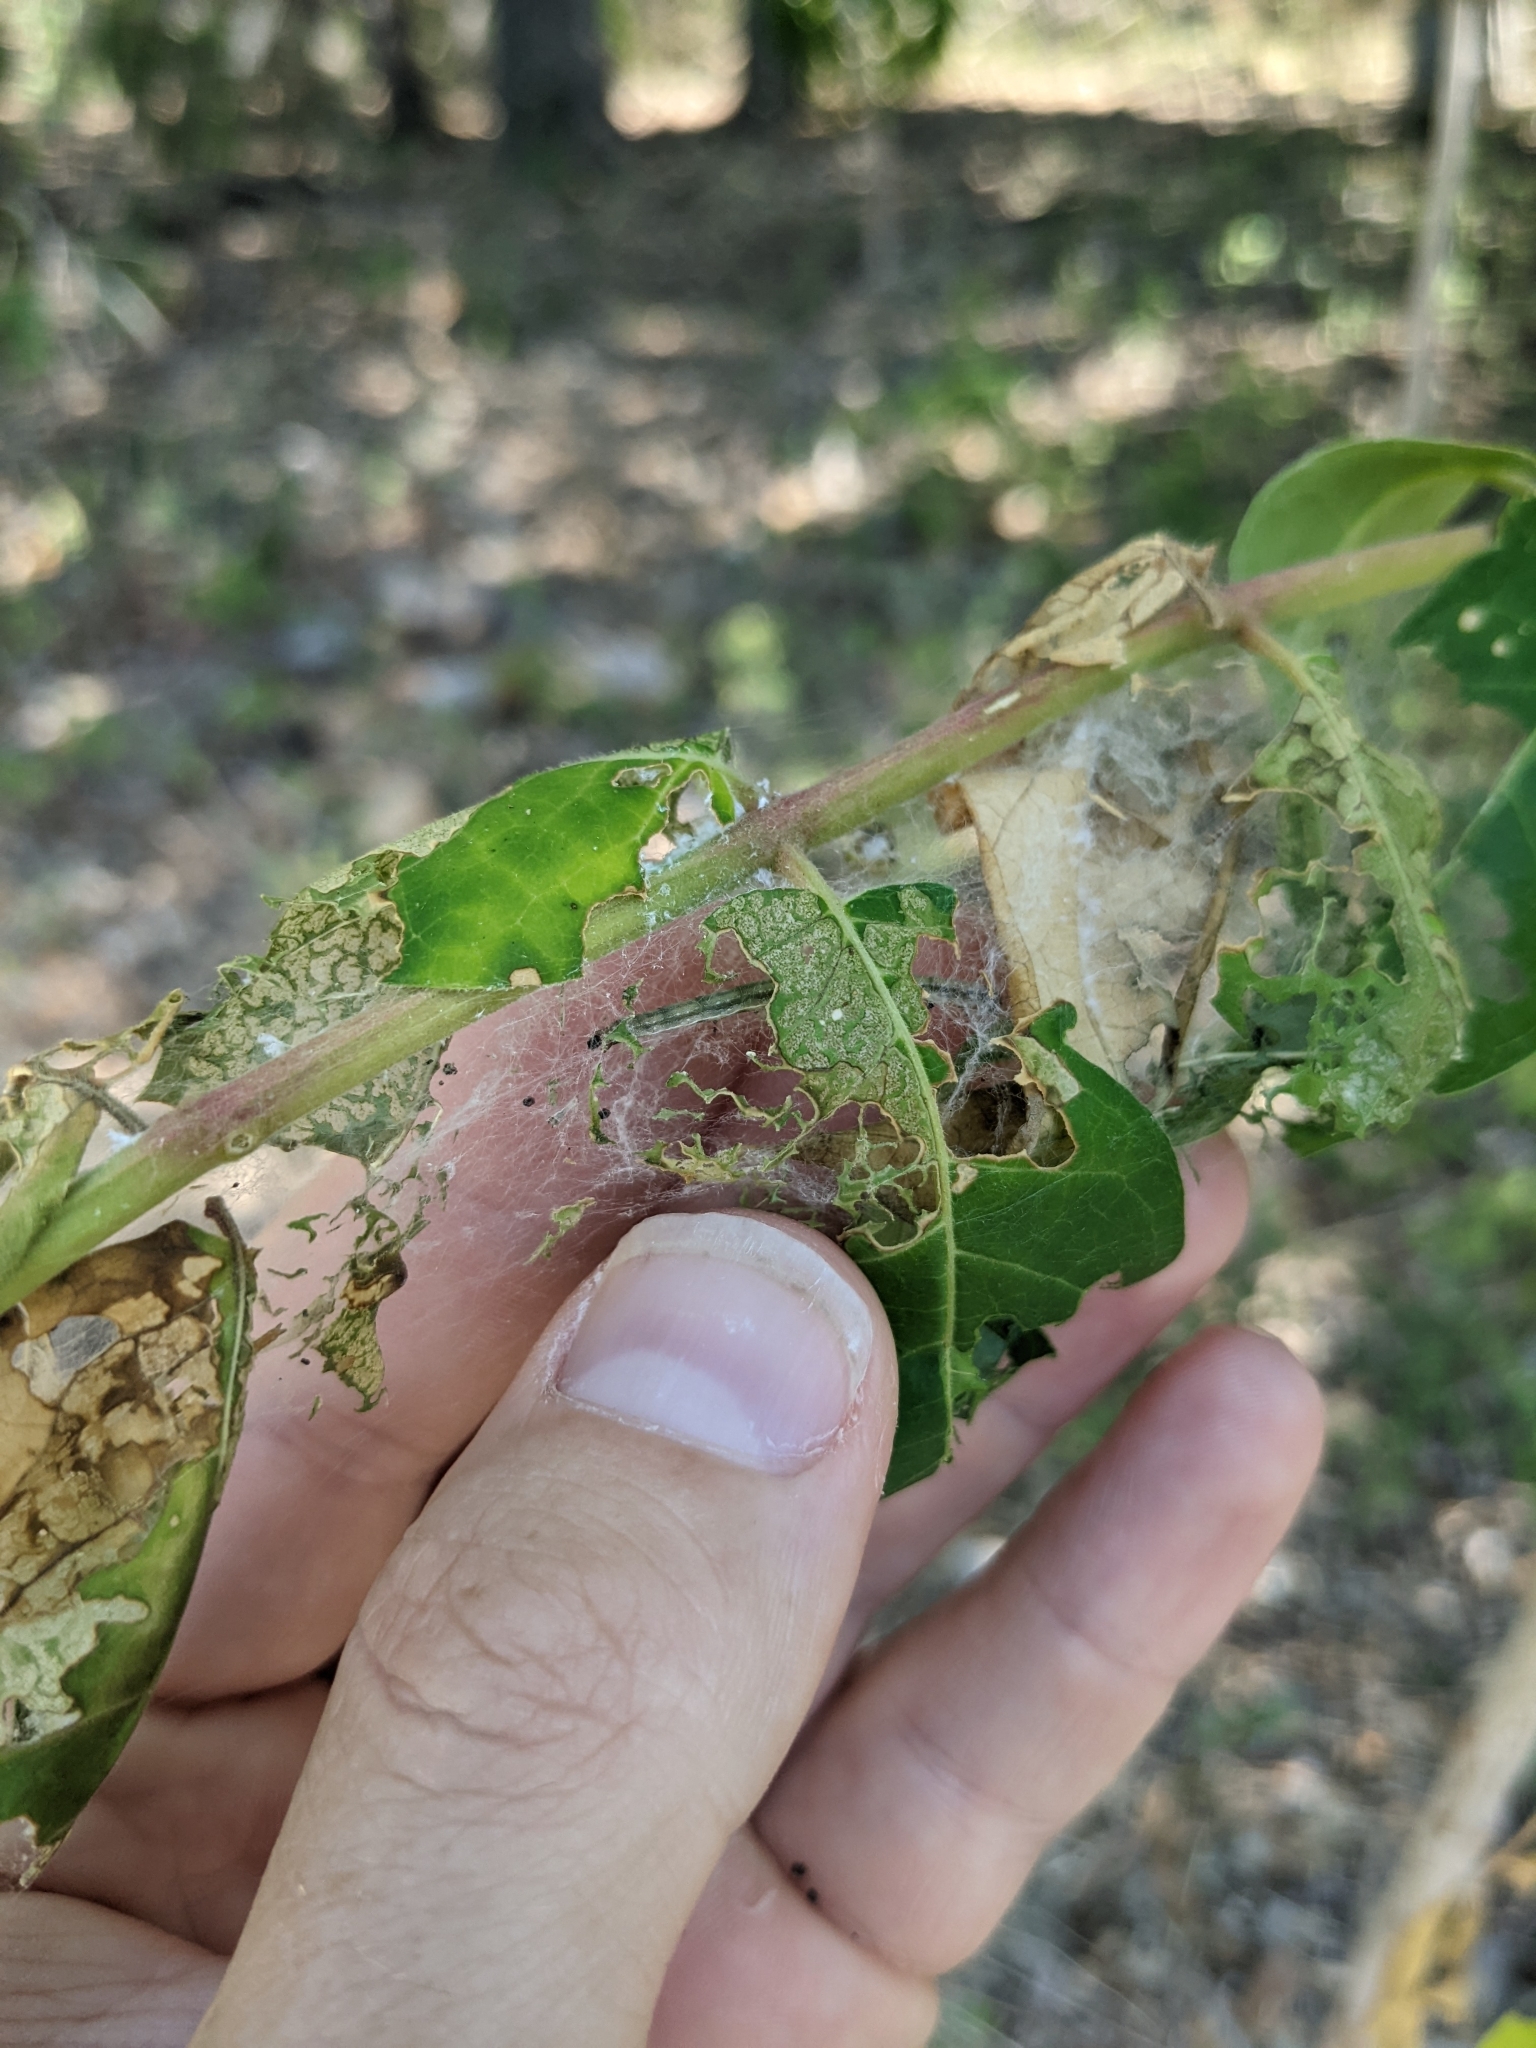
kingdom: Animalia
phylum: Arthropoda
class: Insecta
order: Lepidoptera
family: Attevidae
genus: Atteva
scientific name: Atteva punctella
